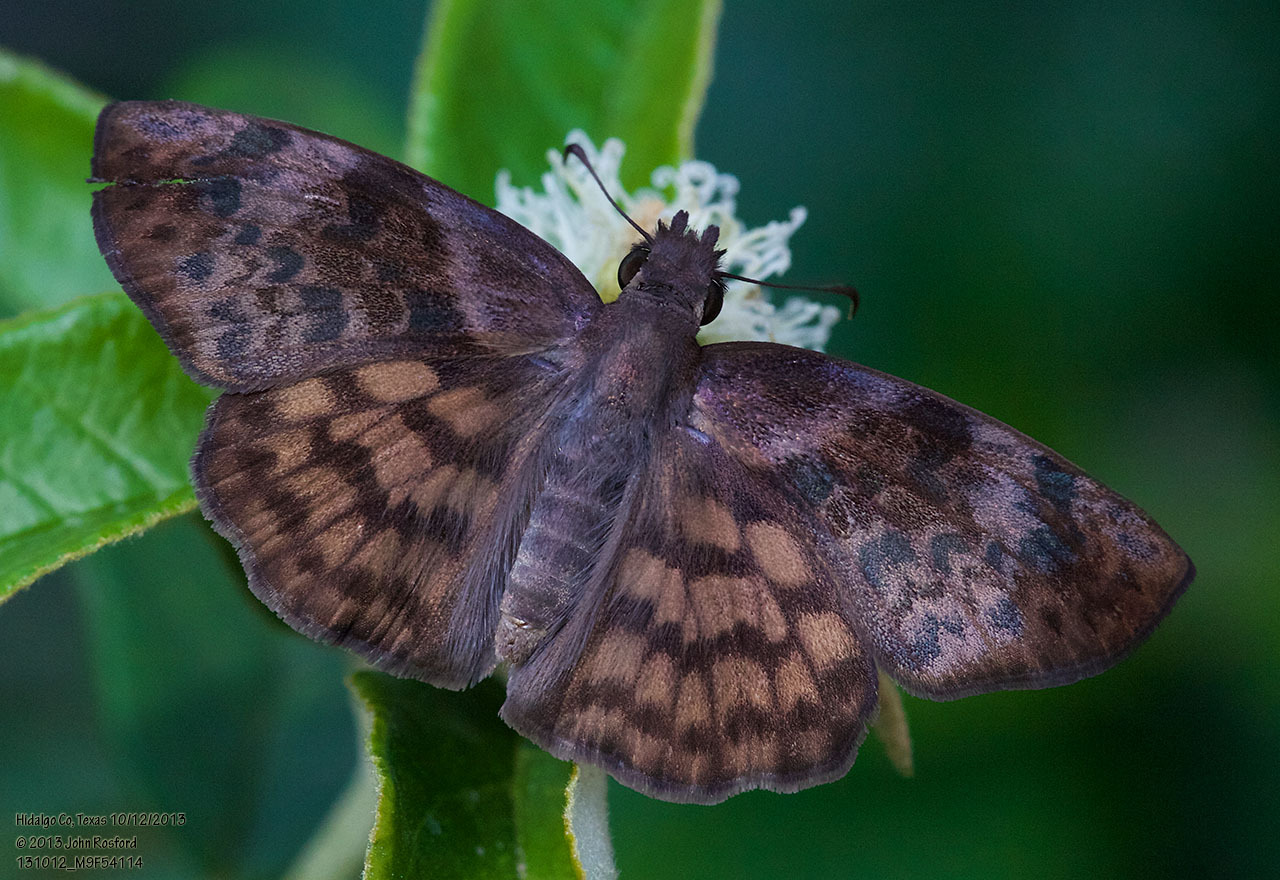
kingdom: Animalia
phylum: Arthropoda
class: Insecta
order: Lepidoptera
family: Hesperiidae
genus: Timochares
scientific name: Timochares ruptifasciata
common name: Brown-banded skipper
